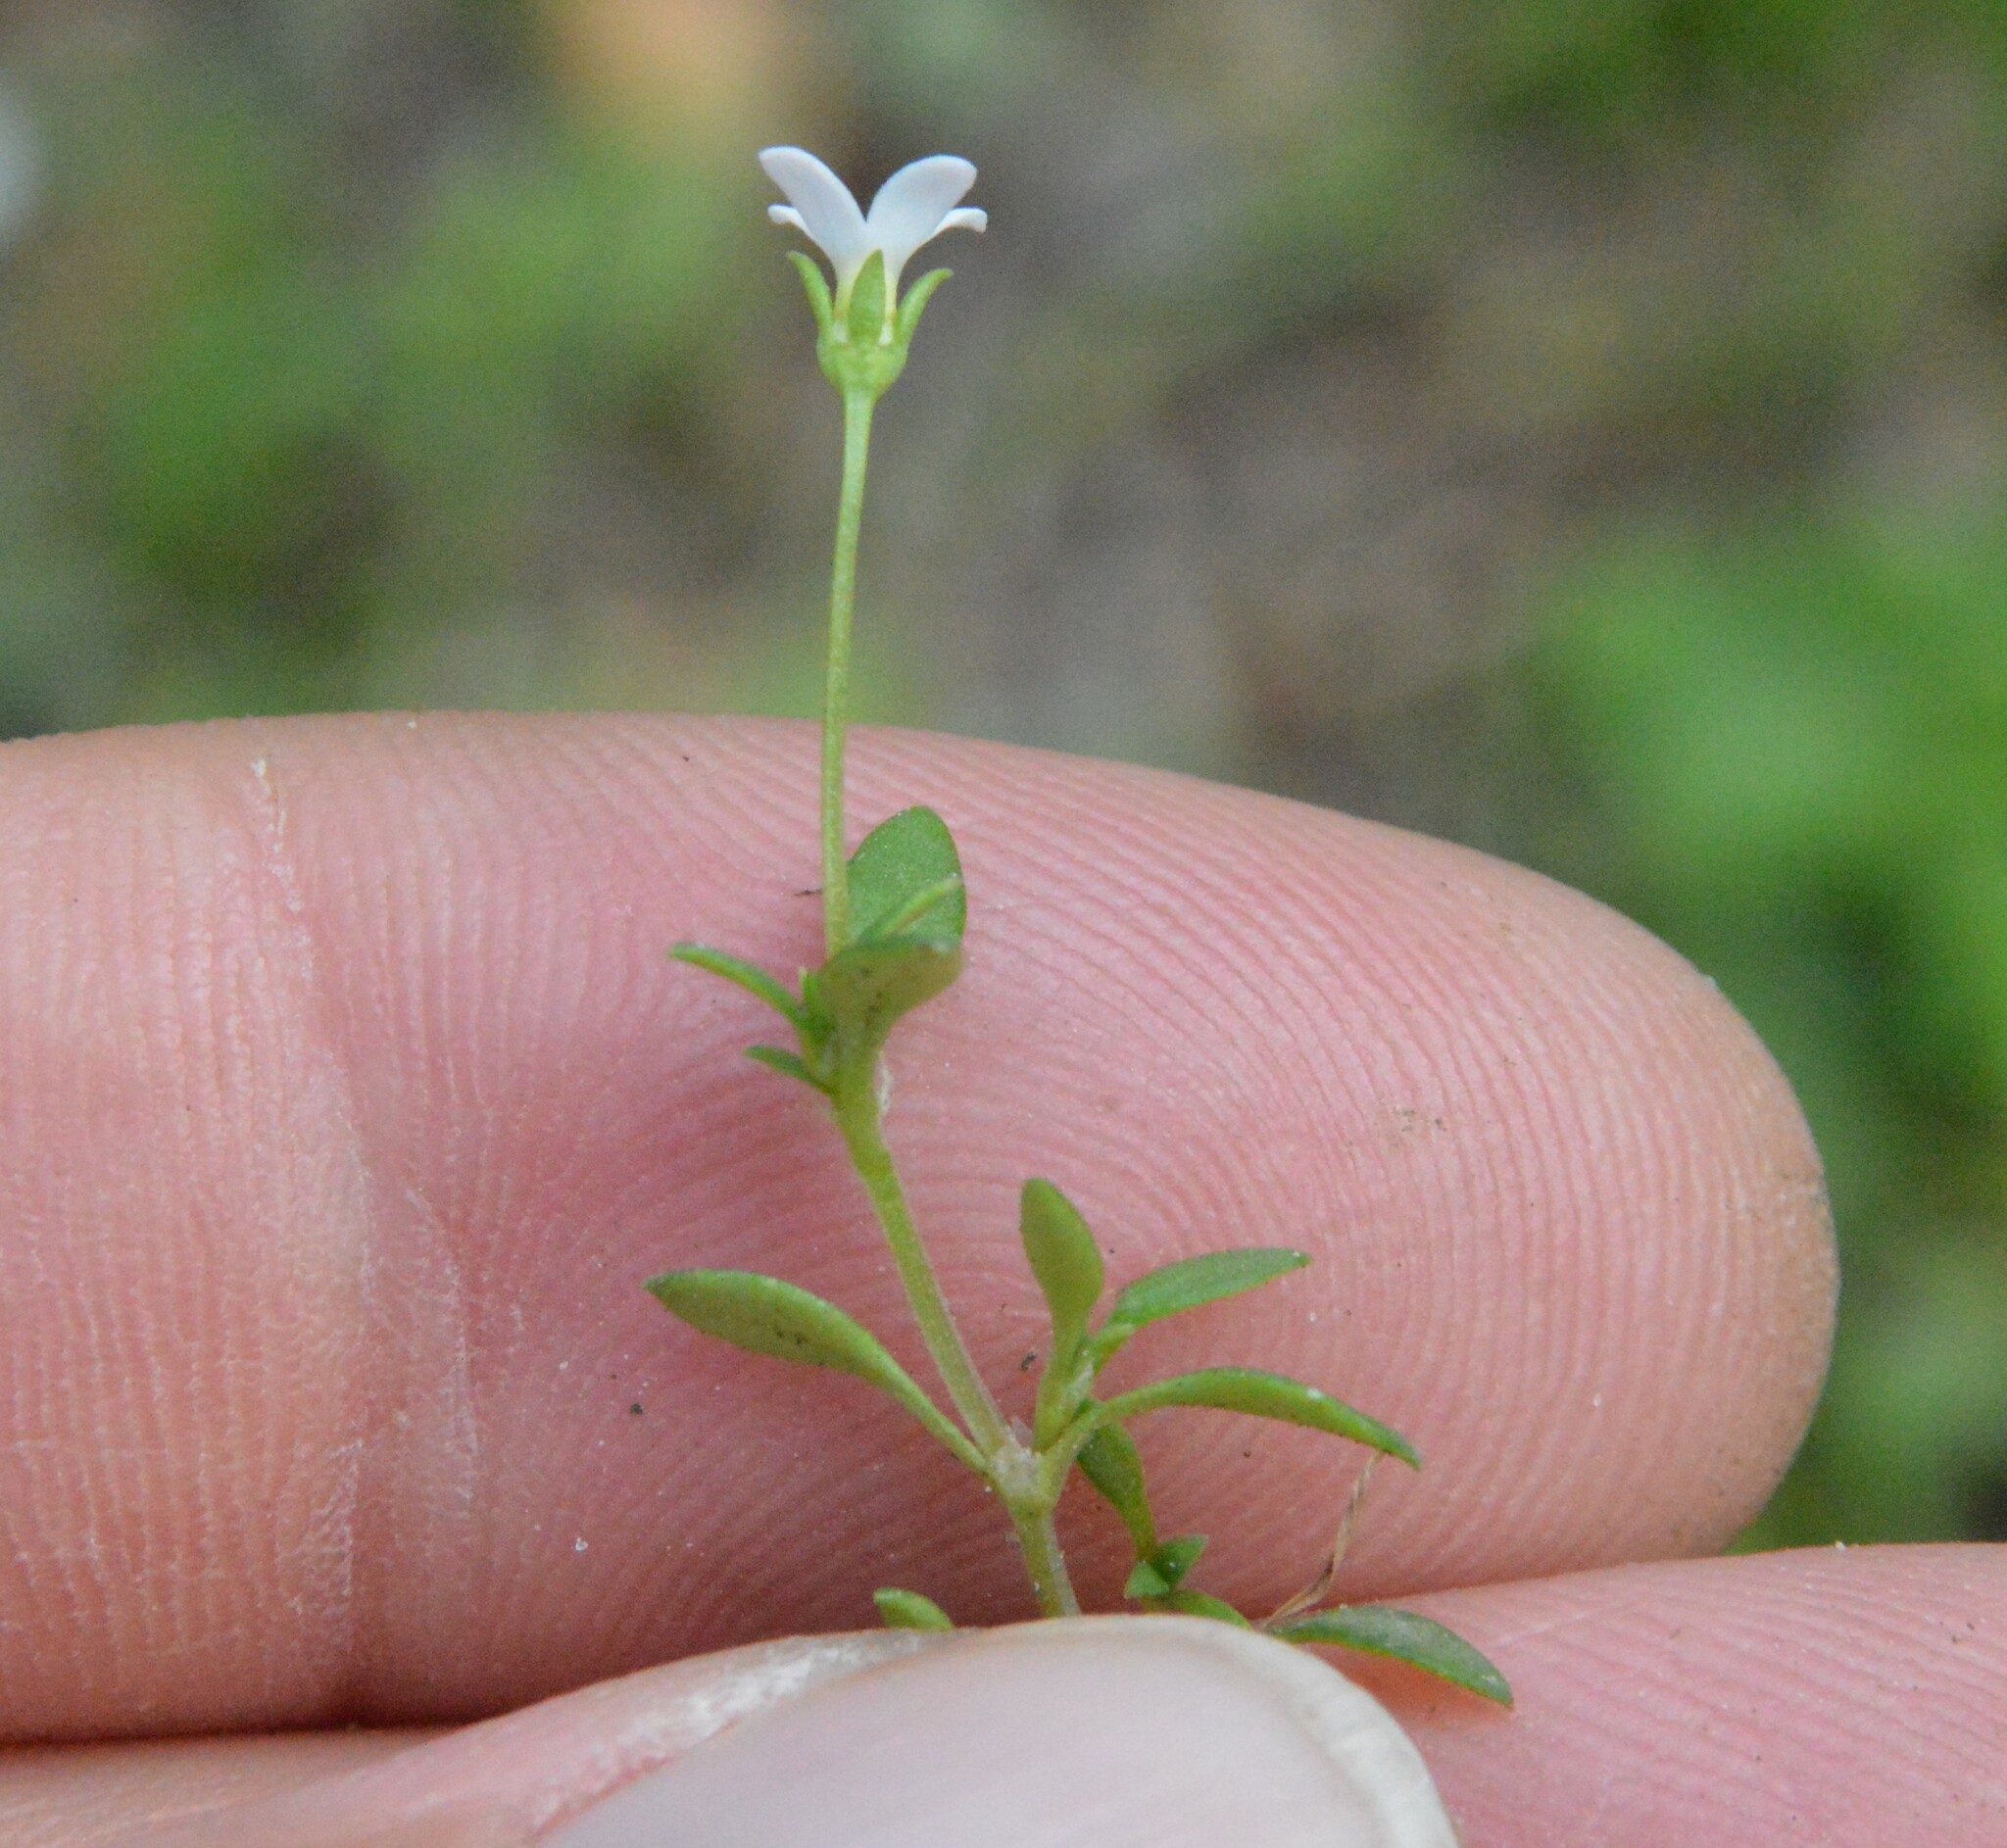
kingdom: Plantae
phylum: Tracheophyta
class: Magnoliopsida
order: Gentianales
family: Rubiaceae
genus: Houstonia
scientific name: Houstonia micrantha
